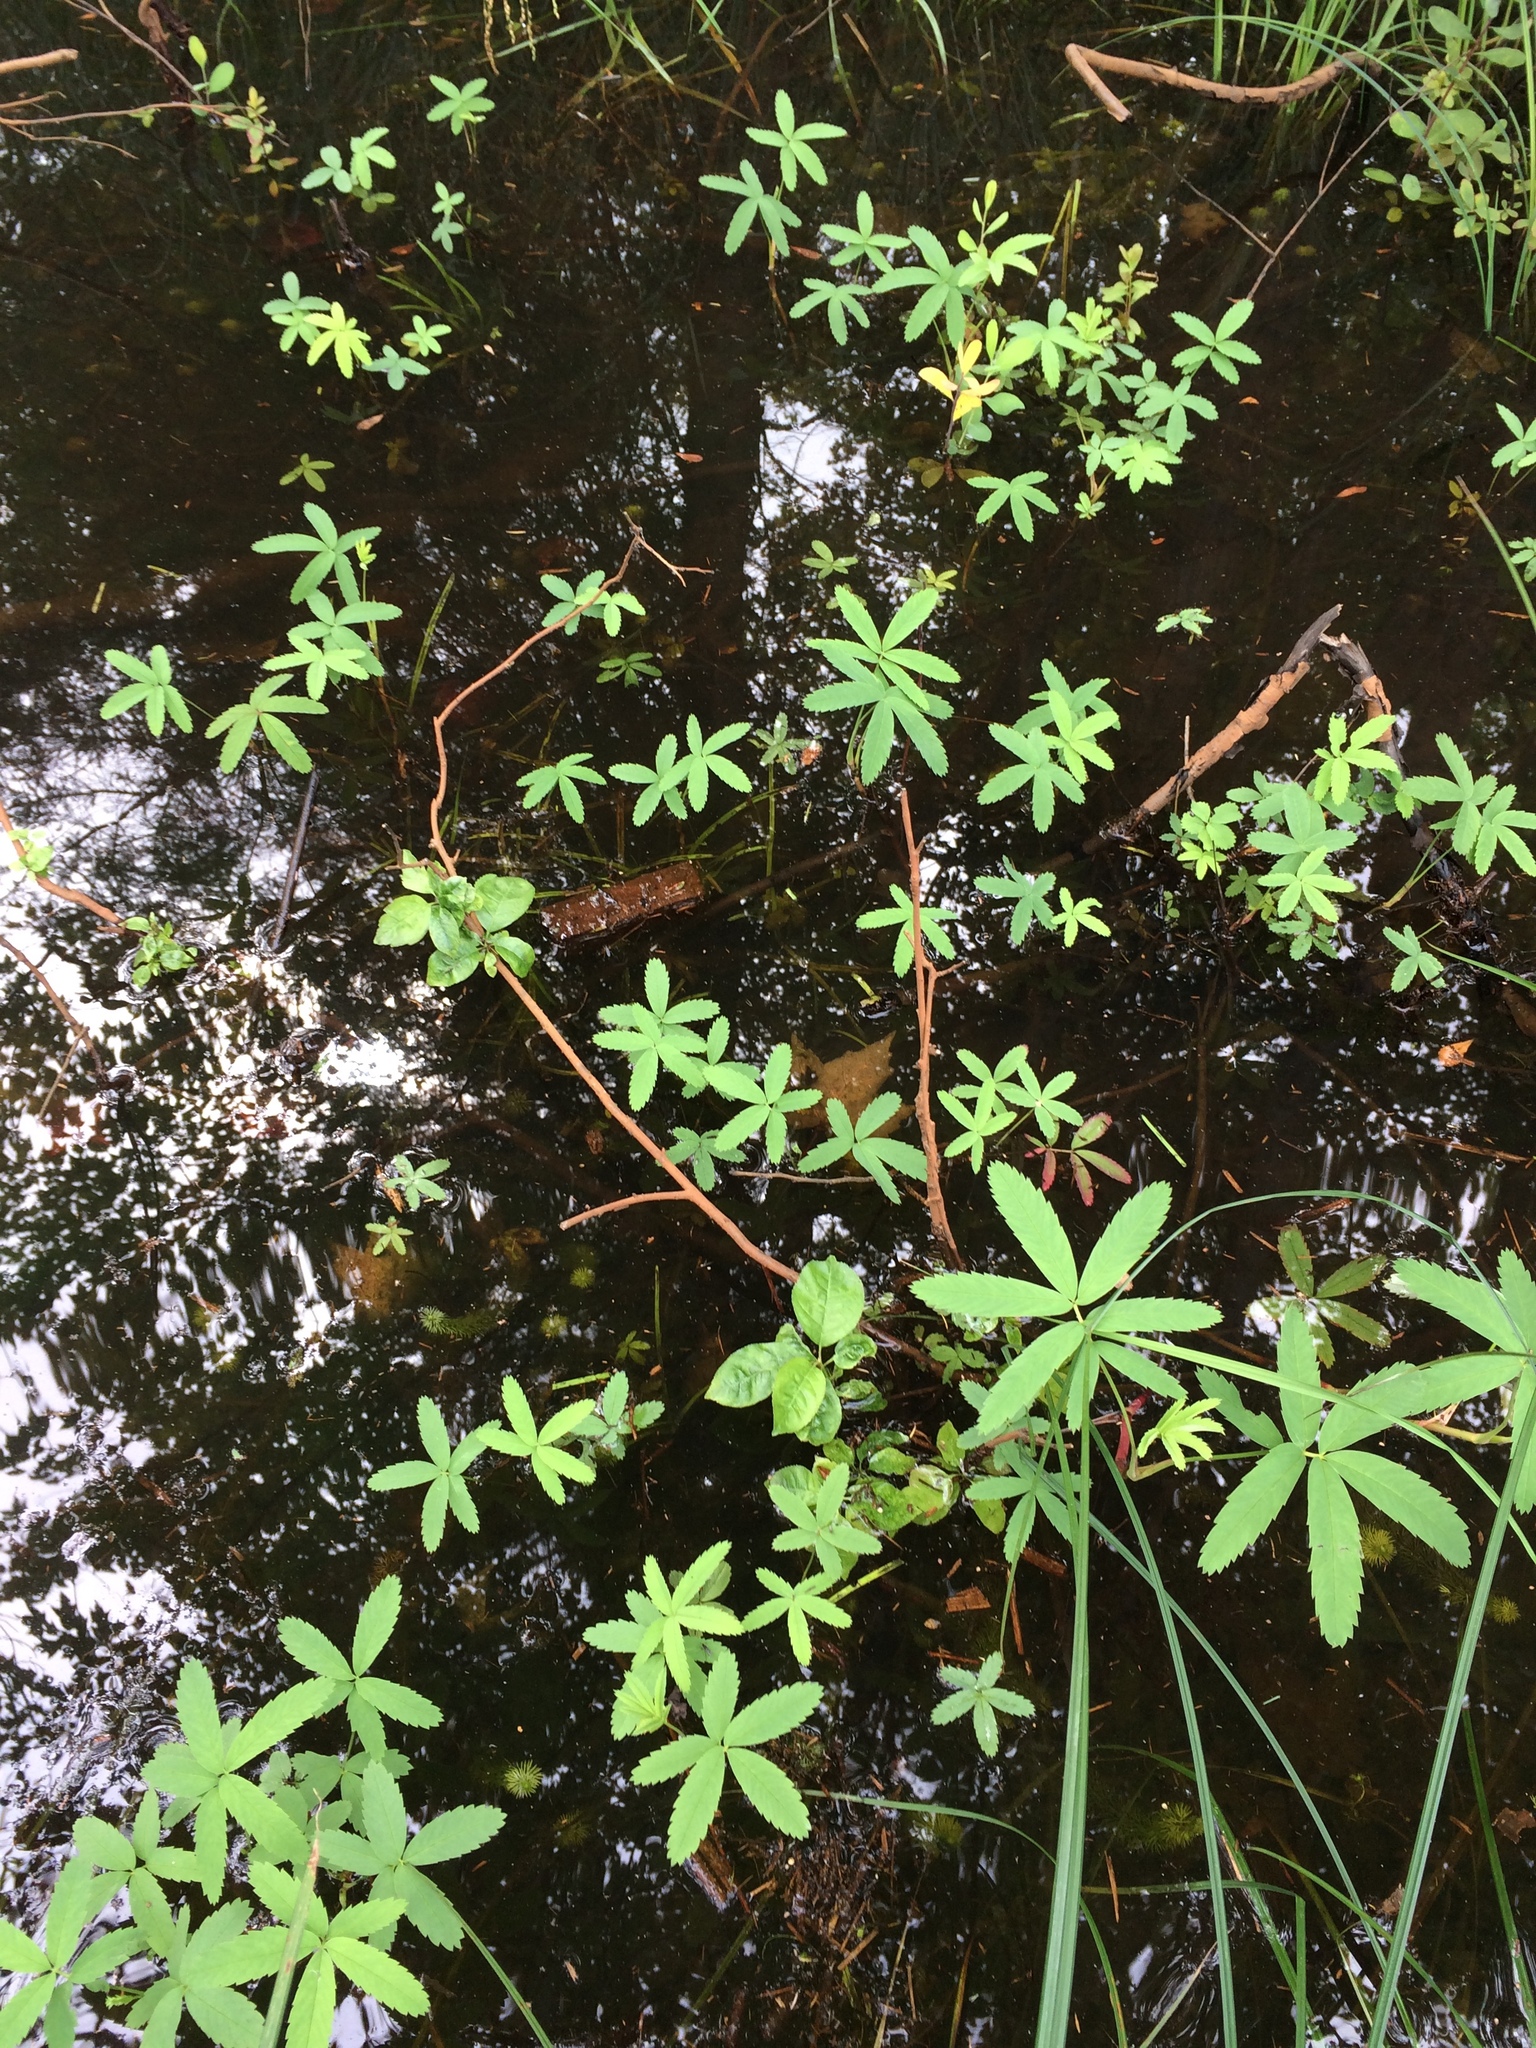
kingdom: Plantae
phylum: Tracheophyta
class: Magnoliopsida
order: Rosales
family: Rosaceae
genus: Comarum
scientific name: Comarum palustre
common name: Marsh cinquefoil
